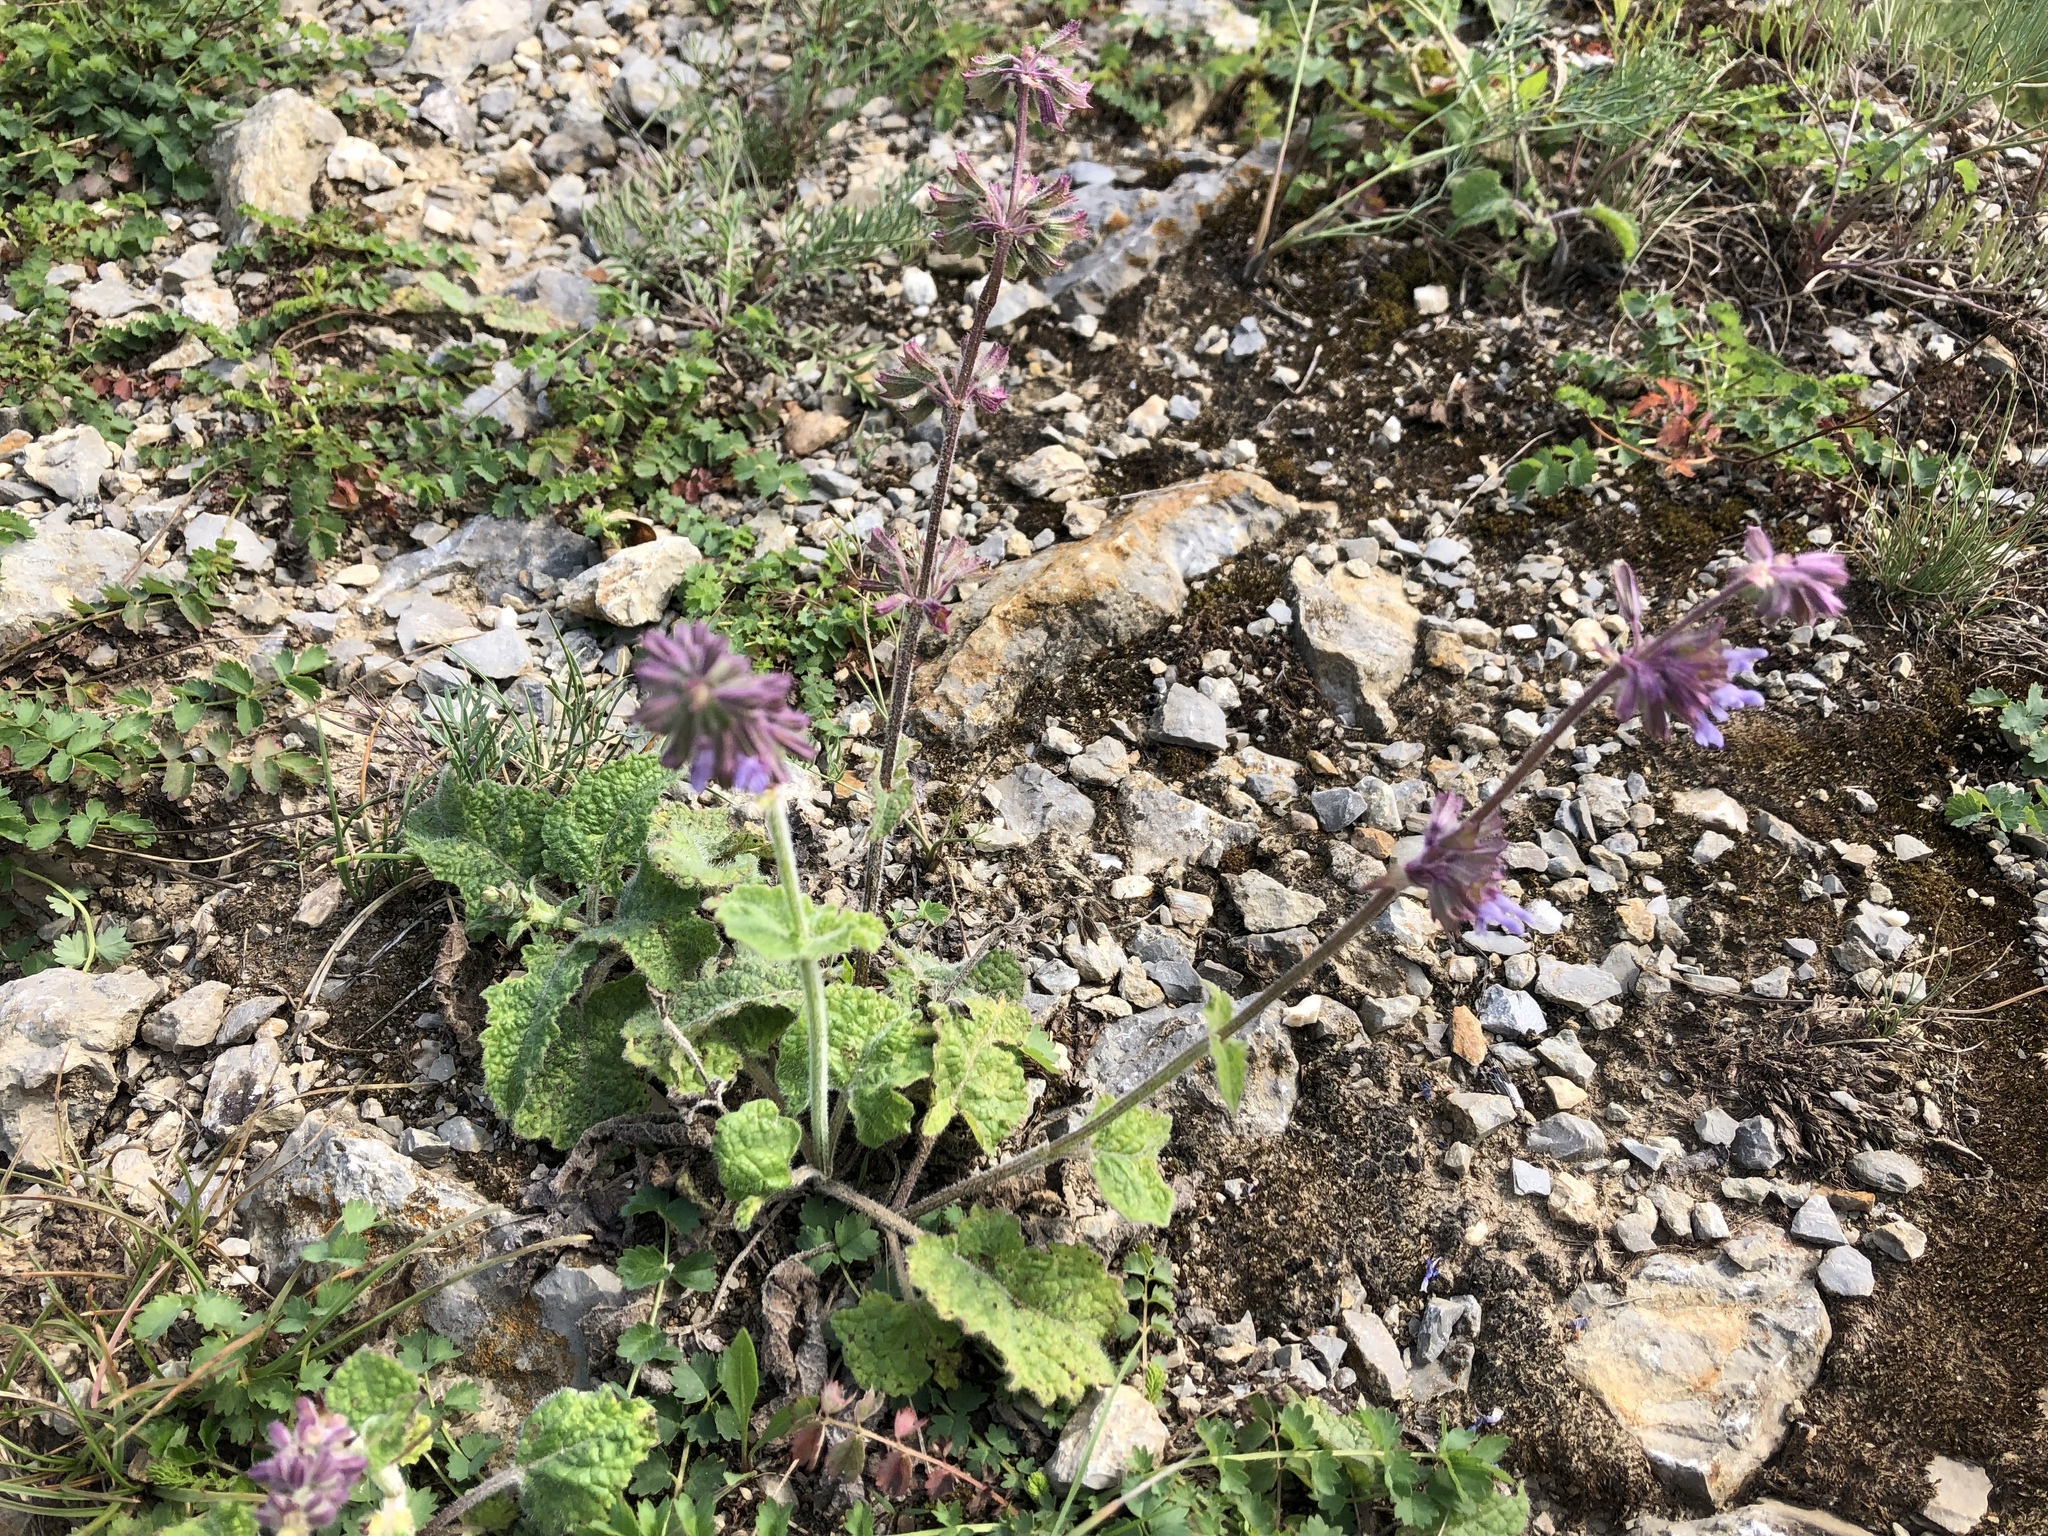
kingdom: Plantae
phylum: Tracheophyta
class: Magnoliopsida
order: Lamiales
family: Lamiaceae
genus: Salvia
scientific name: Salvia verticillata
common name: Whorled clary
